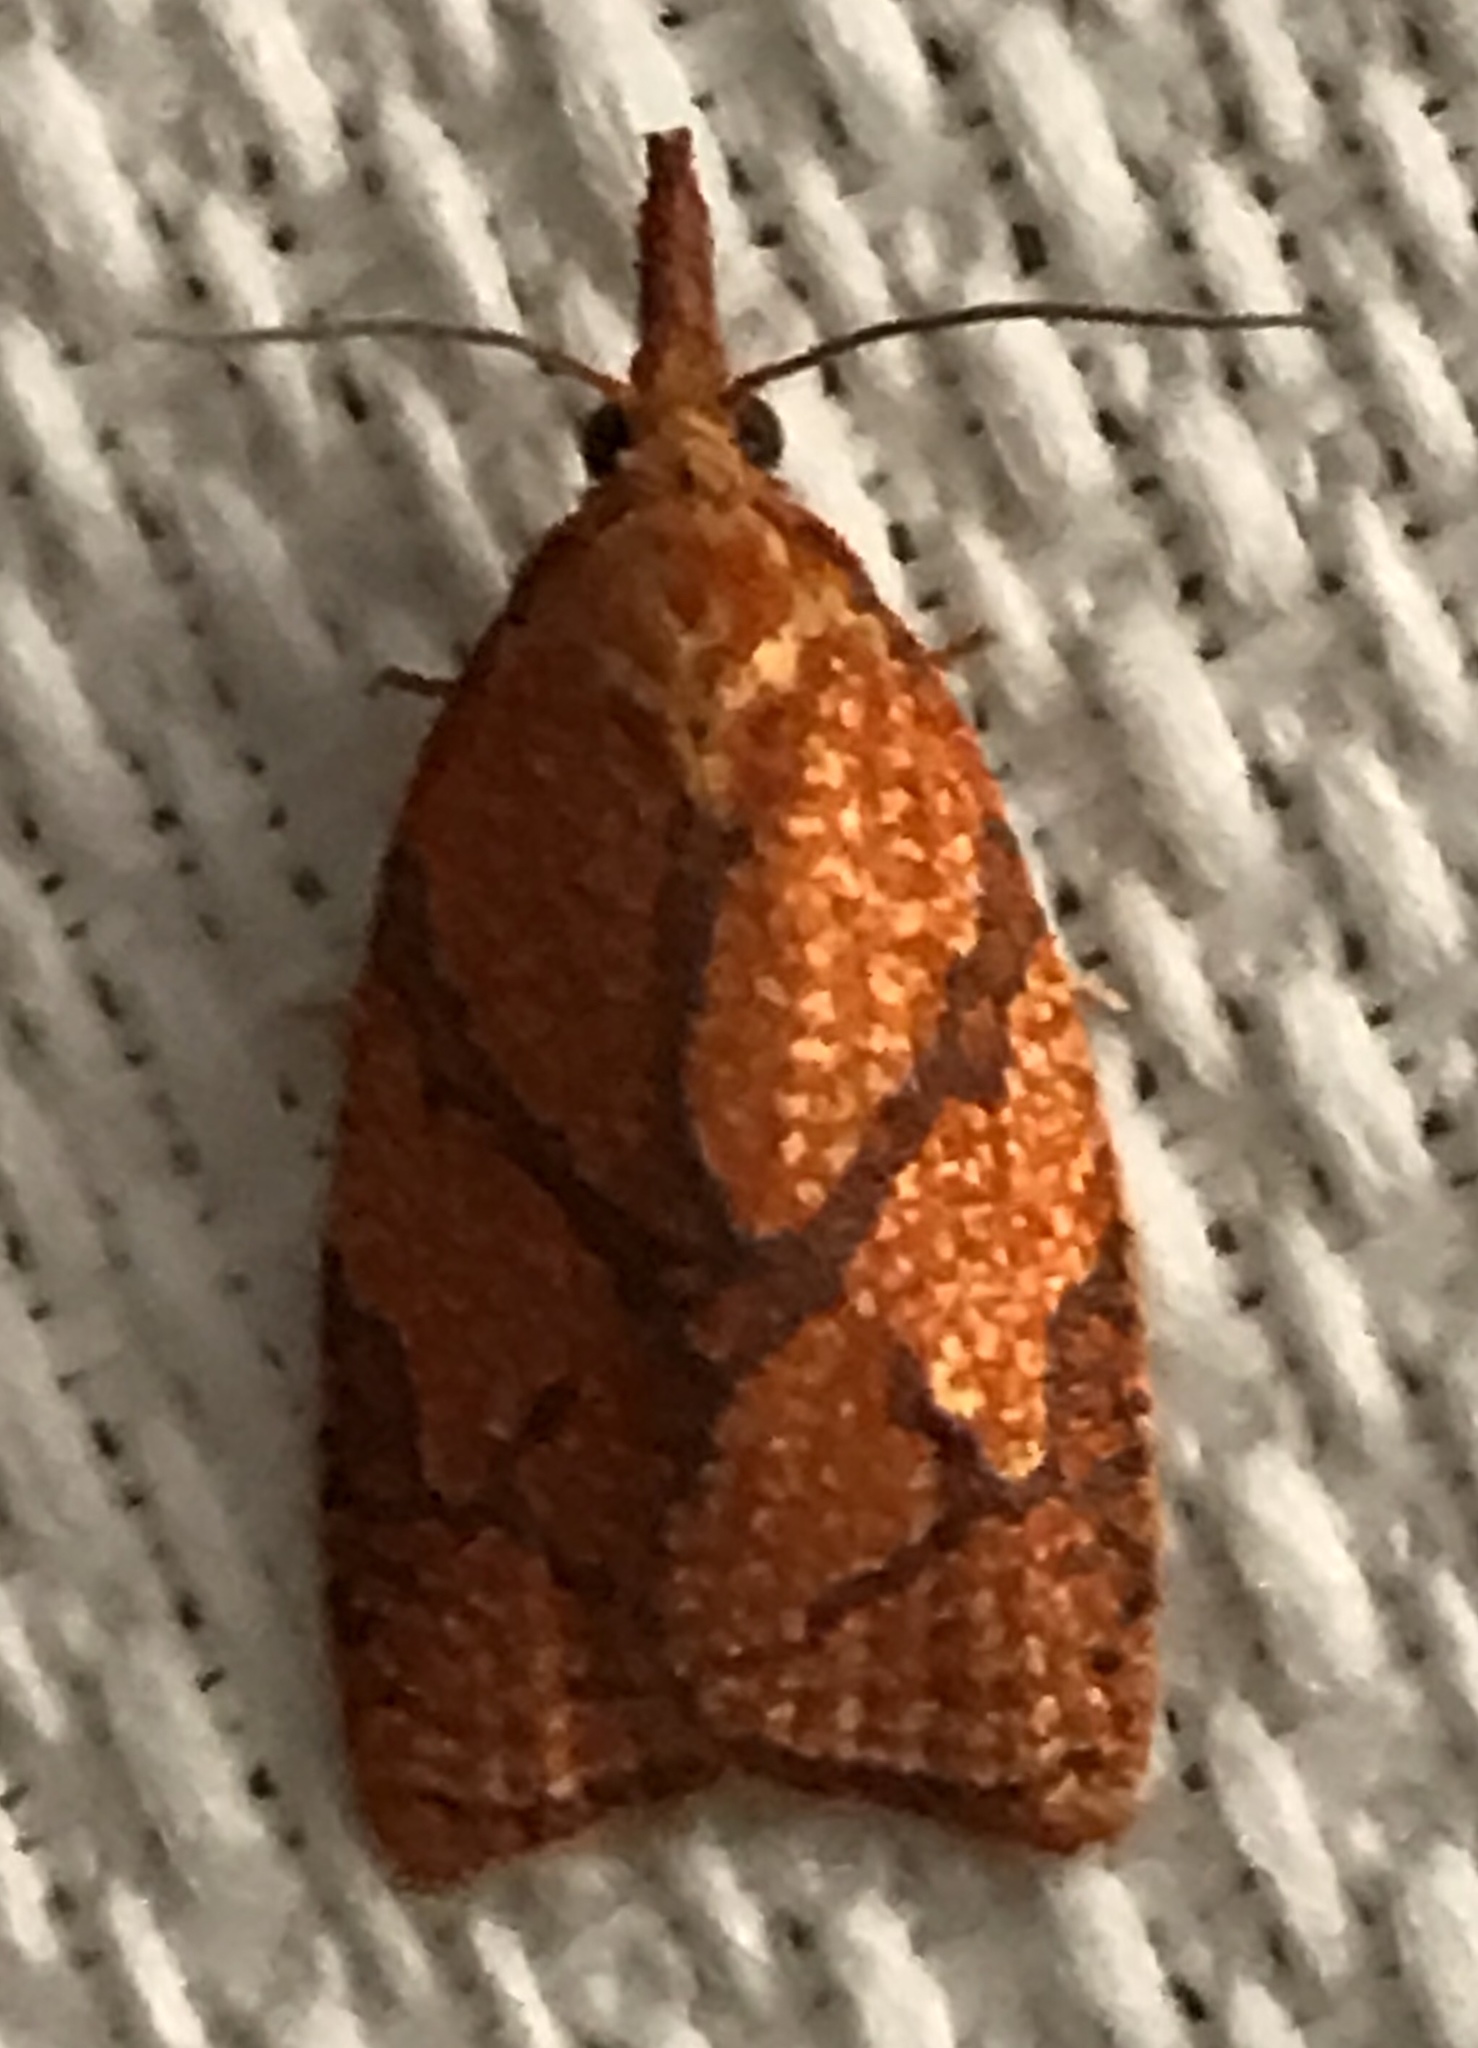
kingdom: Animalia
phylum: Arthropoda
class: Insecta
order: Lepidoptera
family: Tortricidae
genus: Cenopis
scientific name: Cenopis reticulatana
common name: Reticulated fruitworm moth
